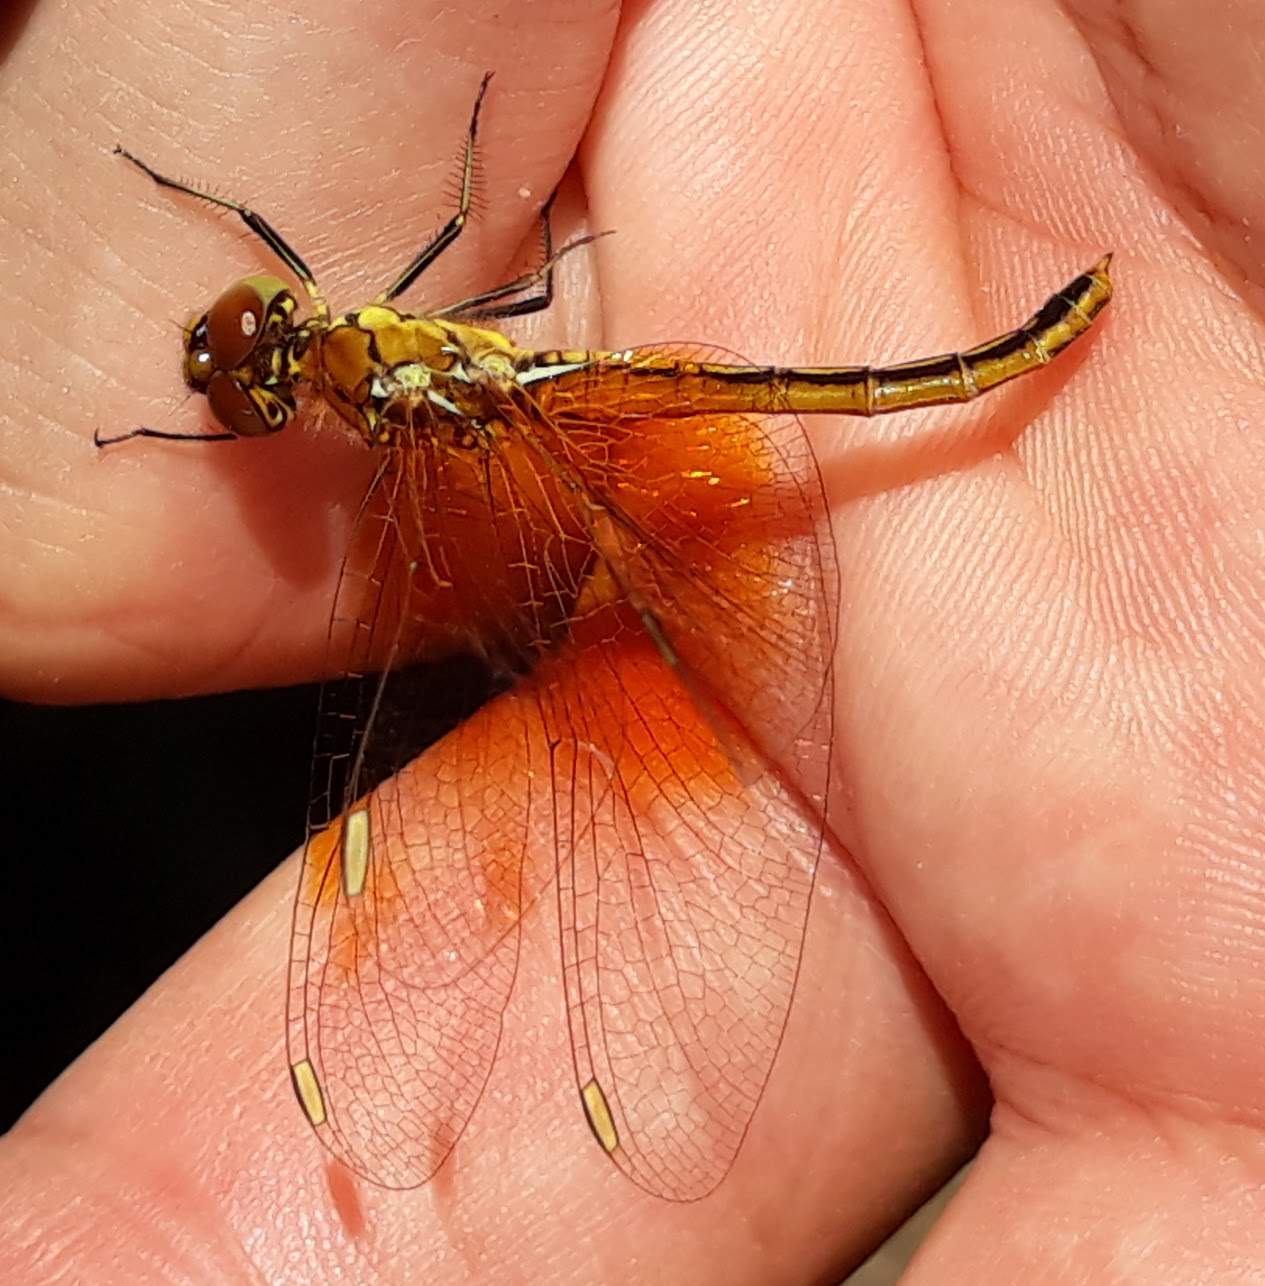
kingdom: Animalia
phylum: Arthropoda
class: Insecta
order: Odonata
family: Libellulidae
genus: Sympetrum
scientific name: Sympetrum flaveolum
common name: Yellow-winged darter
